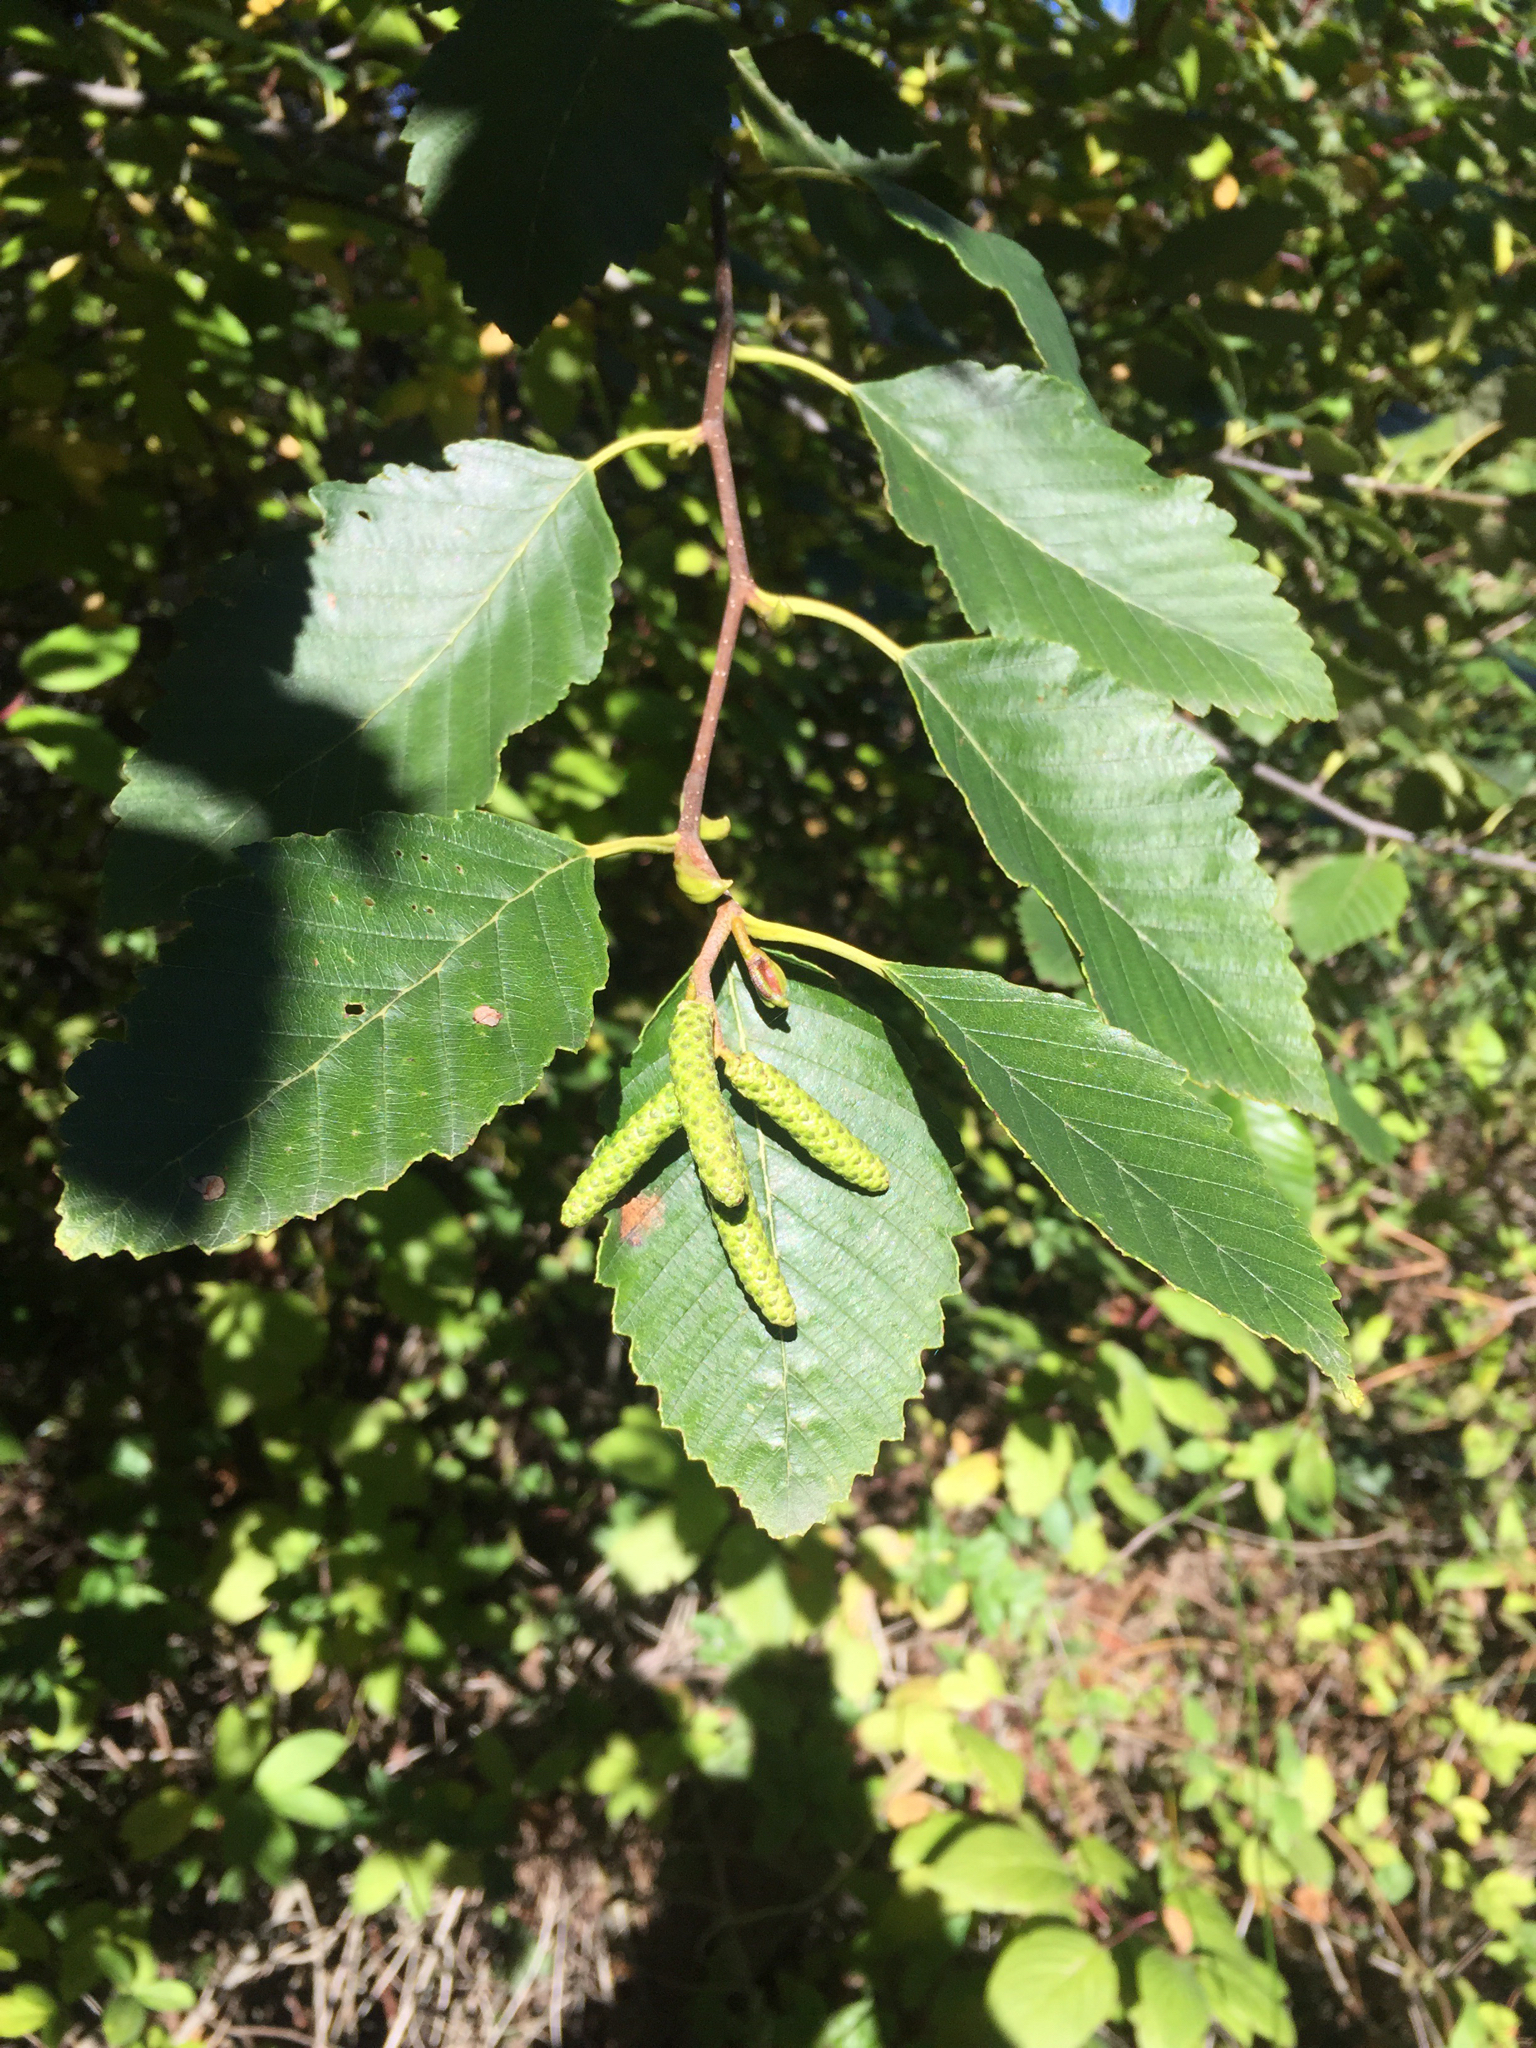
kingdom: Plantae
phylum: Tracheophyta
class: Magnoliopsida
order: Fagales
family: Betulaceae
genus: Alnus
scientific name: Alnus rubra
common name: Red alder
